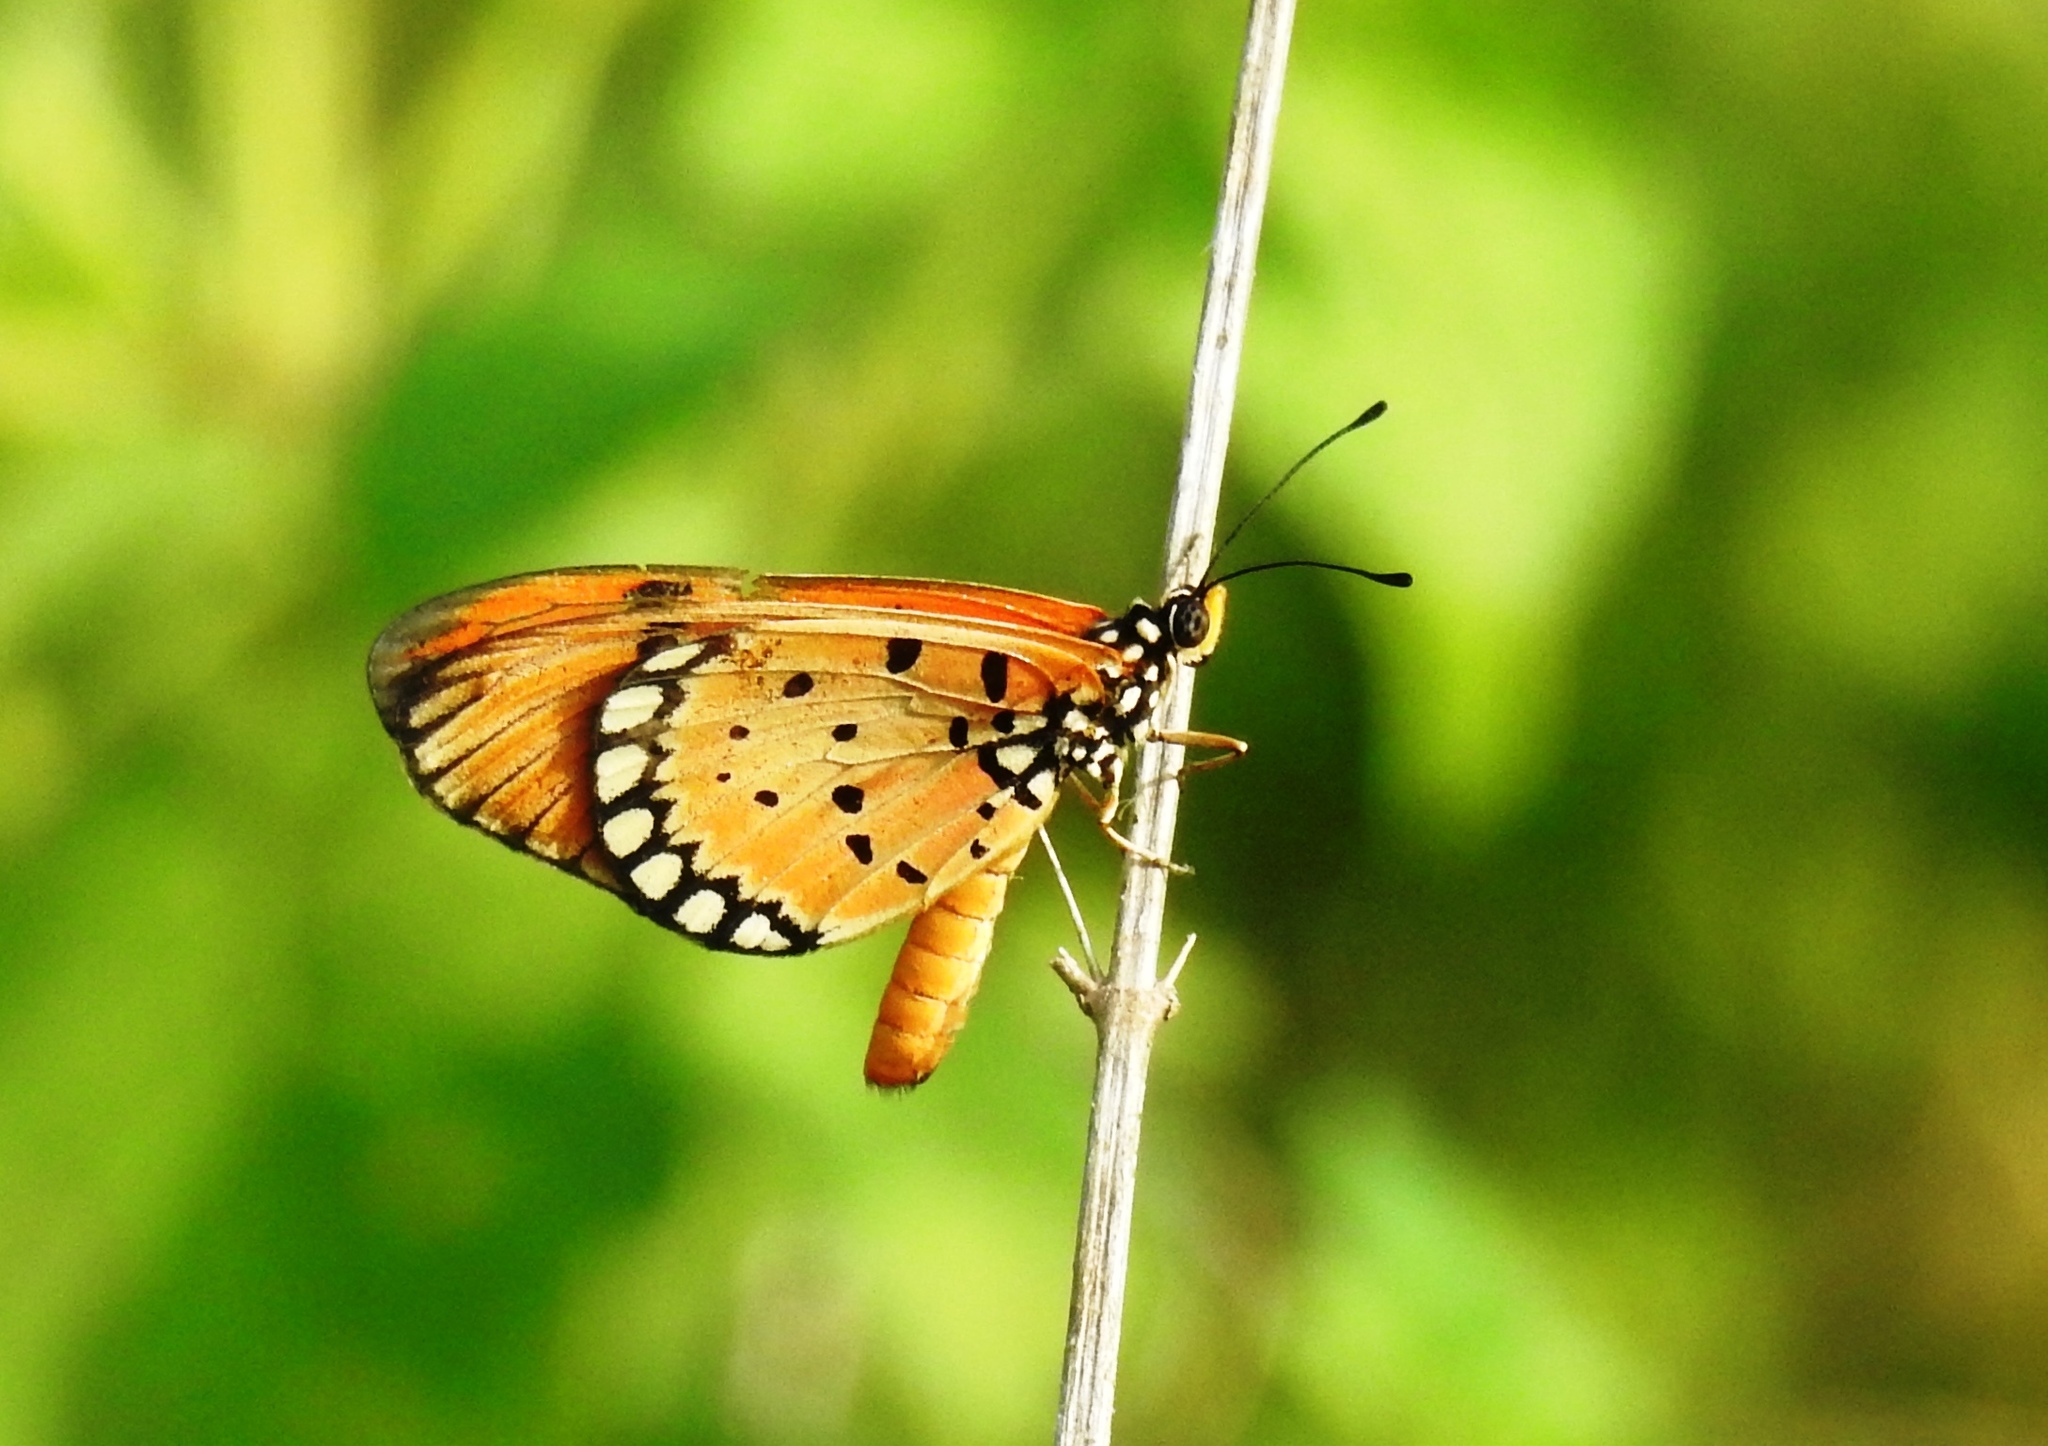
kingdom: Animalia
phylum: Arthropoda
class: Insecta
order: Lepidoptera
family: Nymphalidae
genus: Acraea
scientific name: Acraea terpsicore
